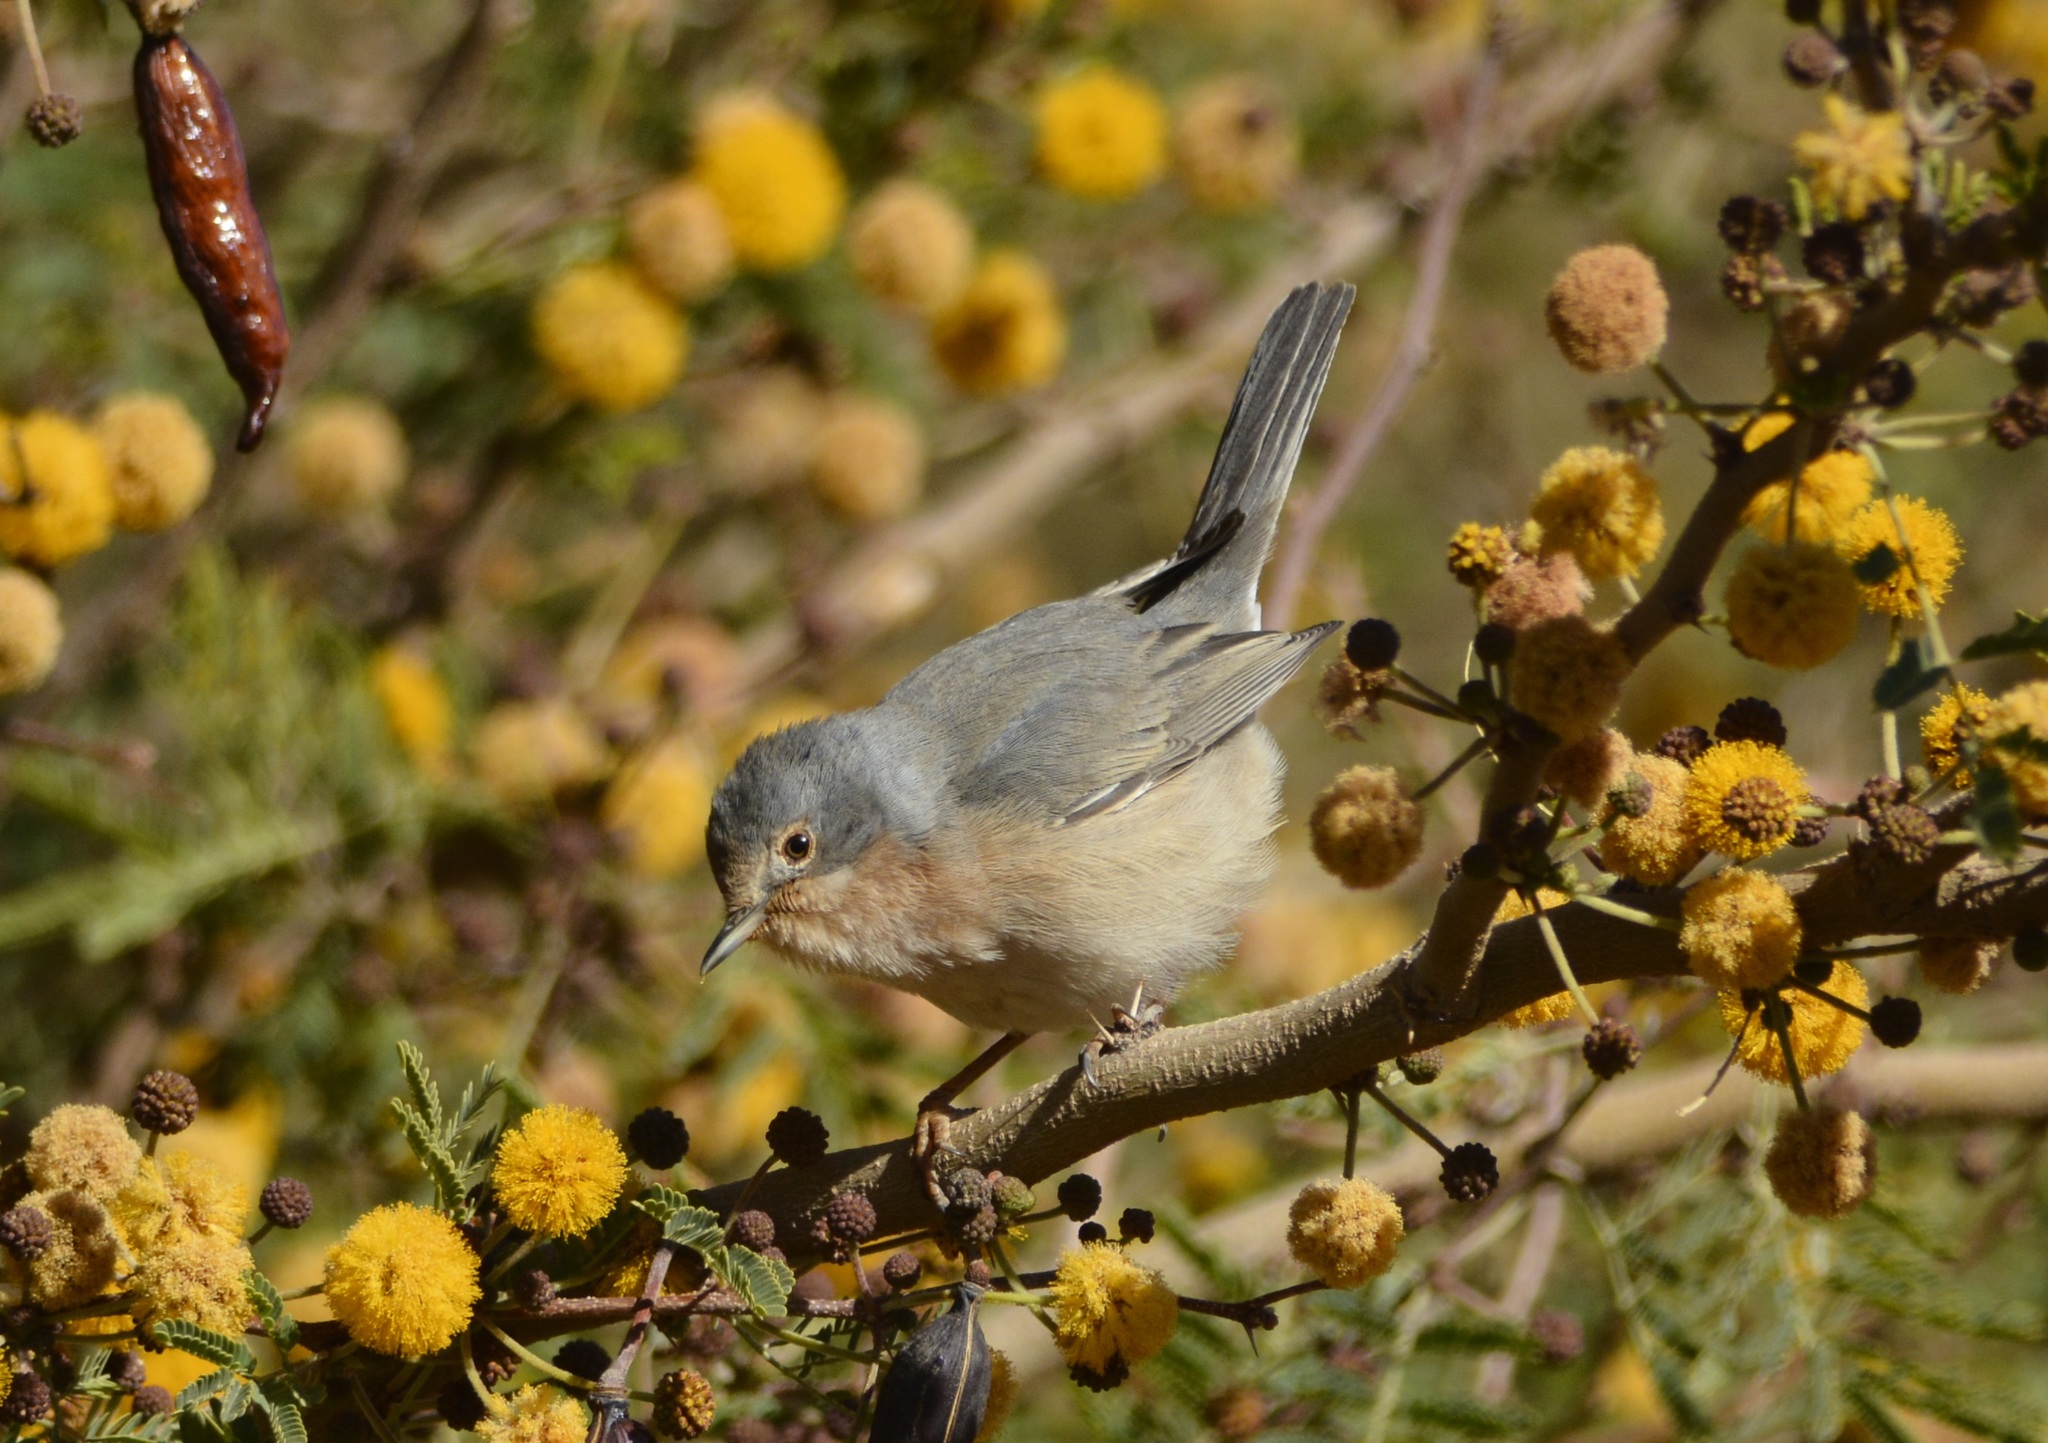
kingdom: Animalia
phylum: Chordata
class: Aves
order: Passeriformes
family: Sylviidae
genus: Curruca
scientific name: Curruca subalpina
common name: Moltoni's warbler
